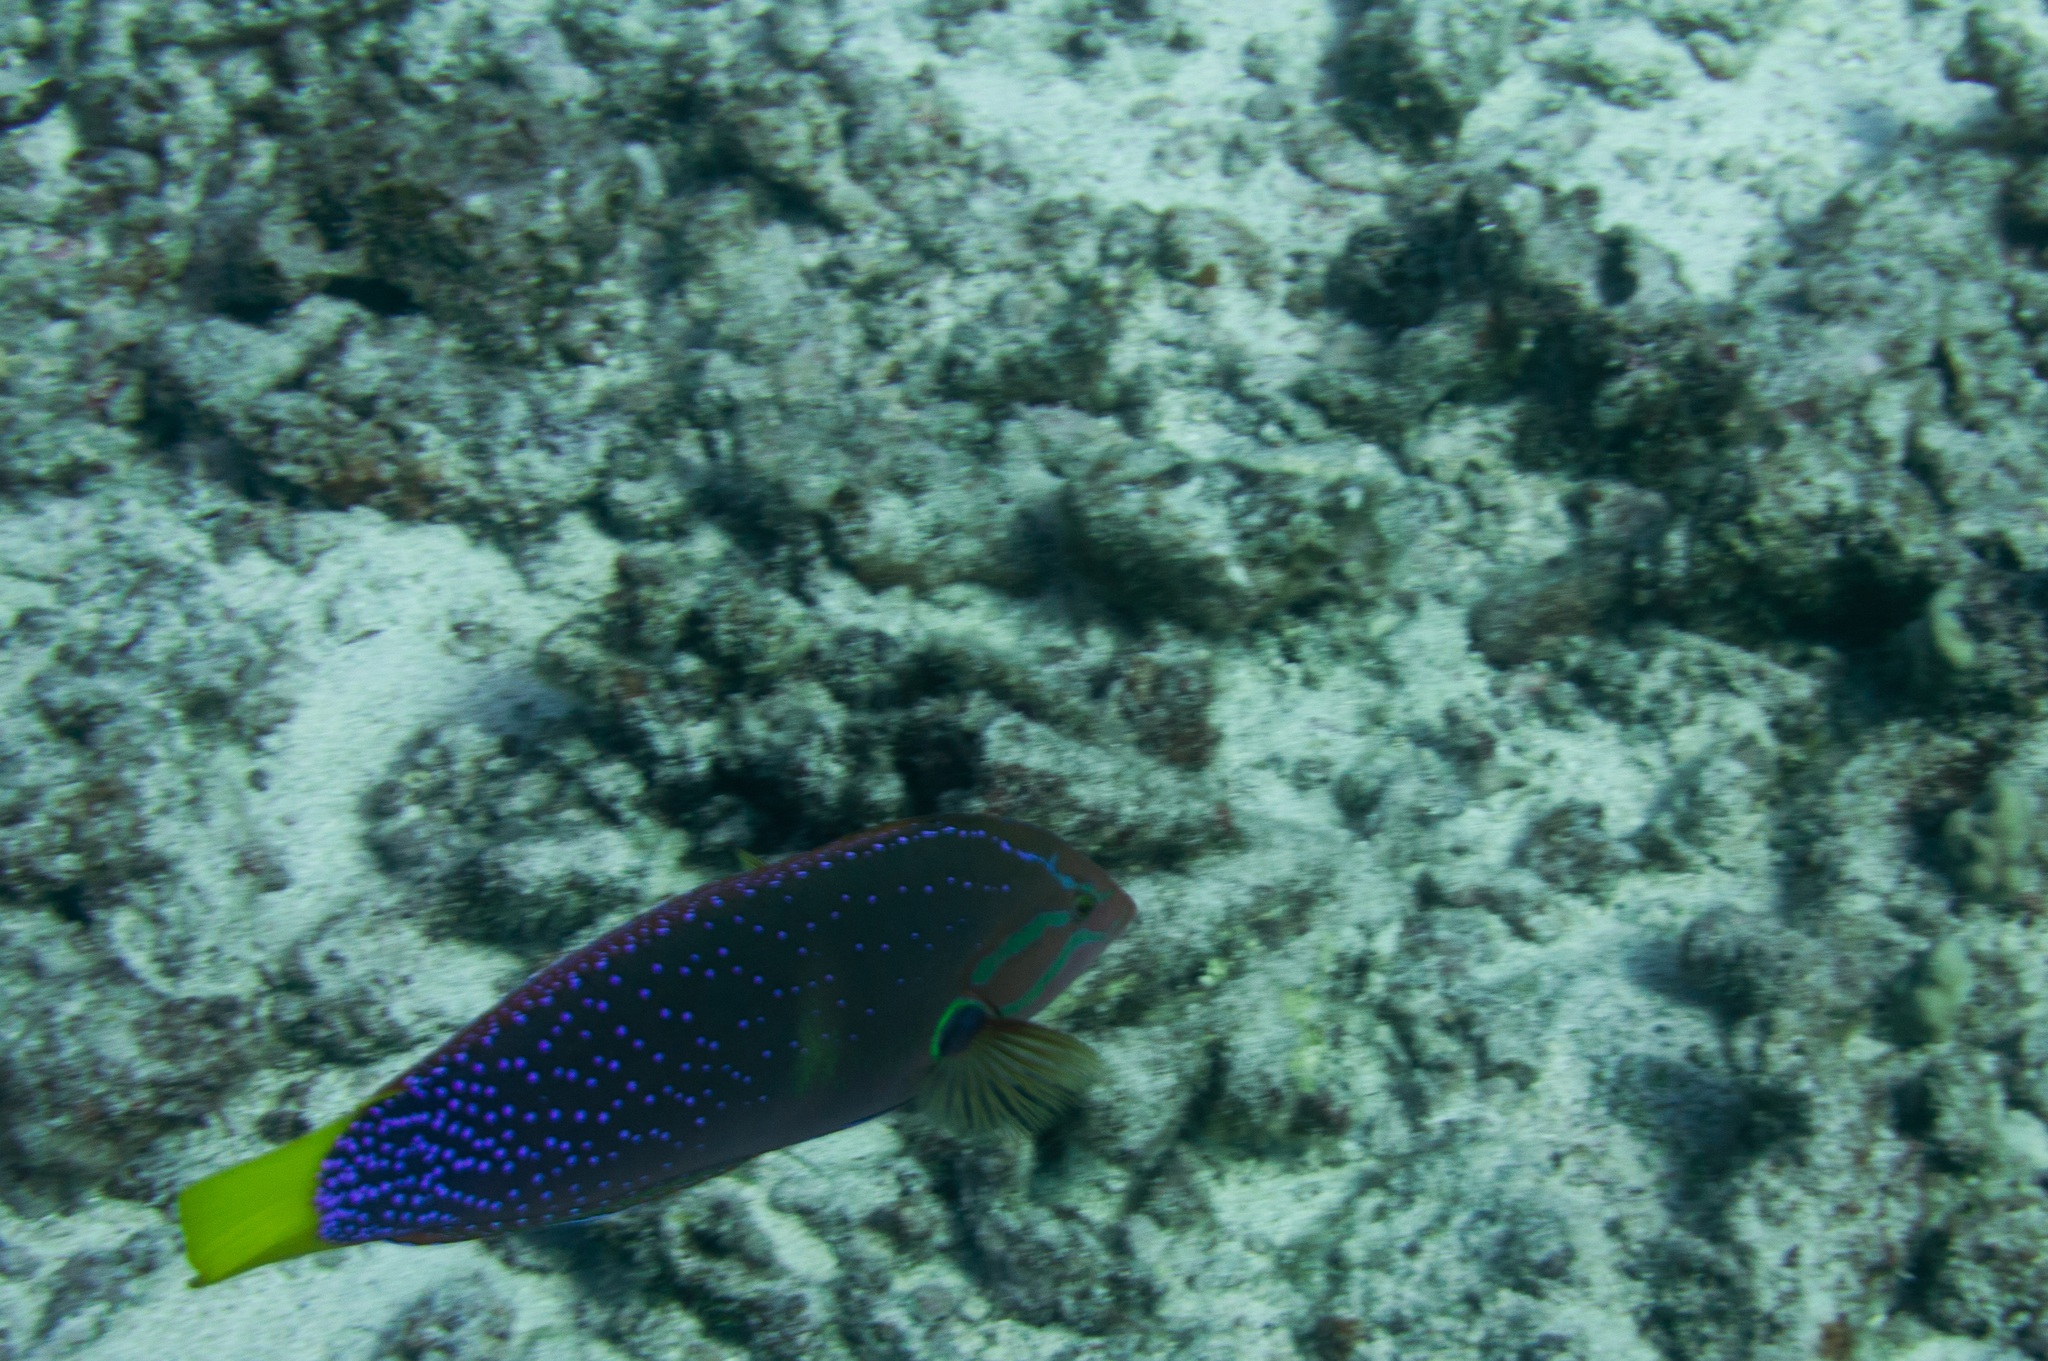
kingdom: Animalia
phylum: Chordata
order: Perciformes
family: Labridae
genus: Coris
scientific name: Coris gaimard
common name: Yellowtail coris
